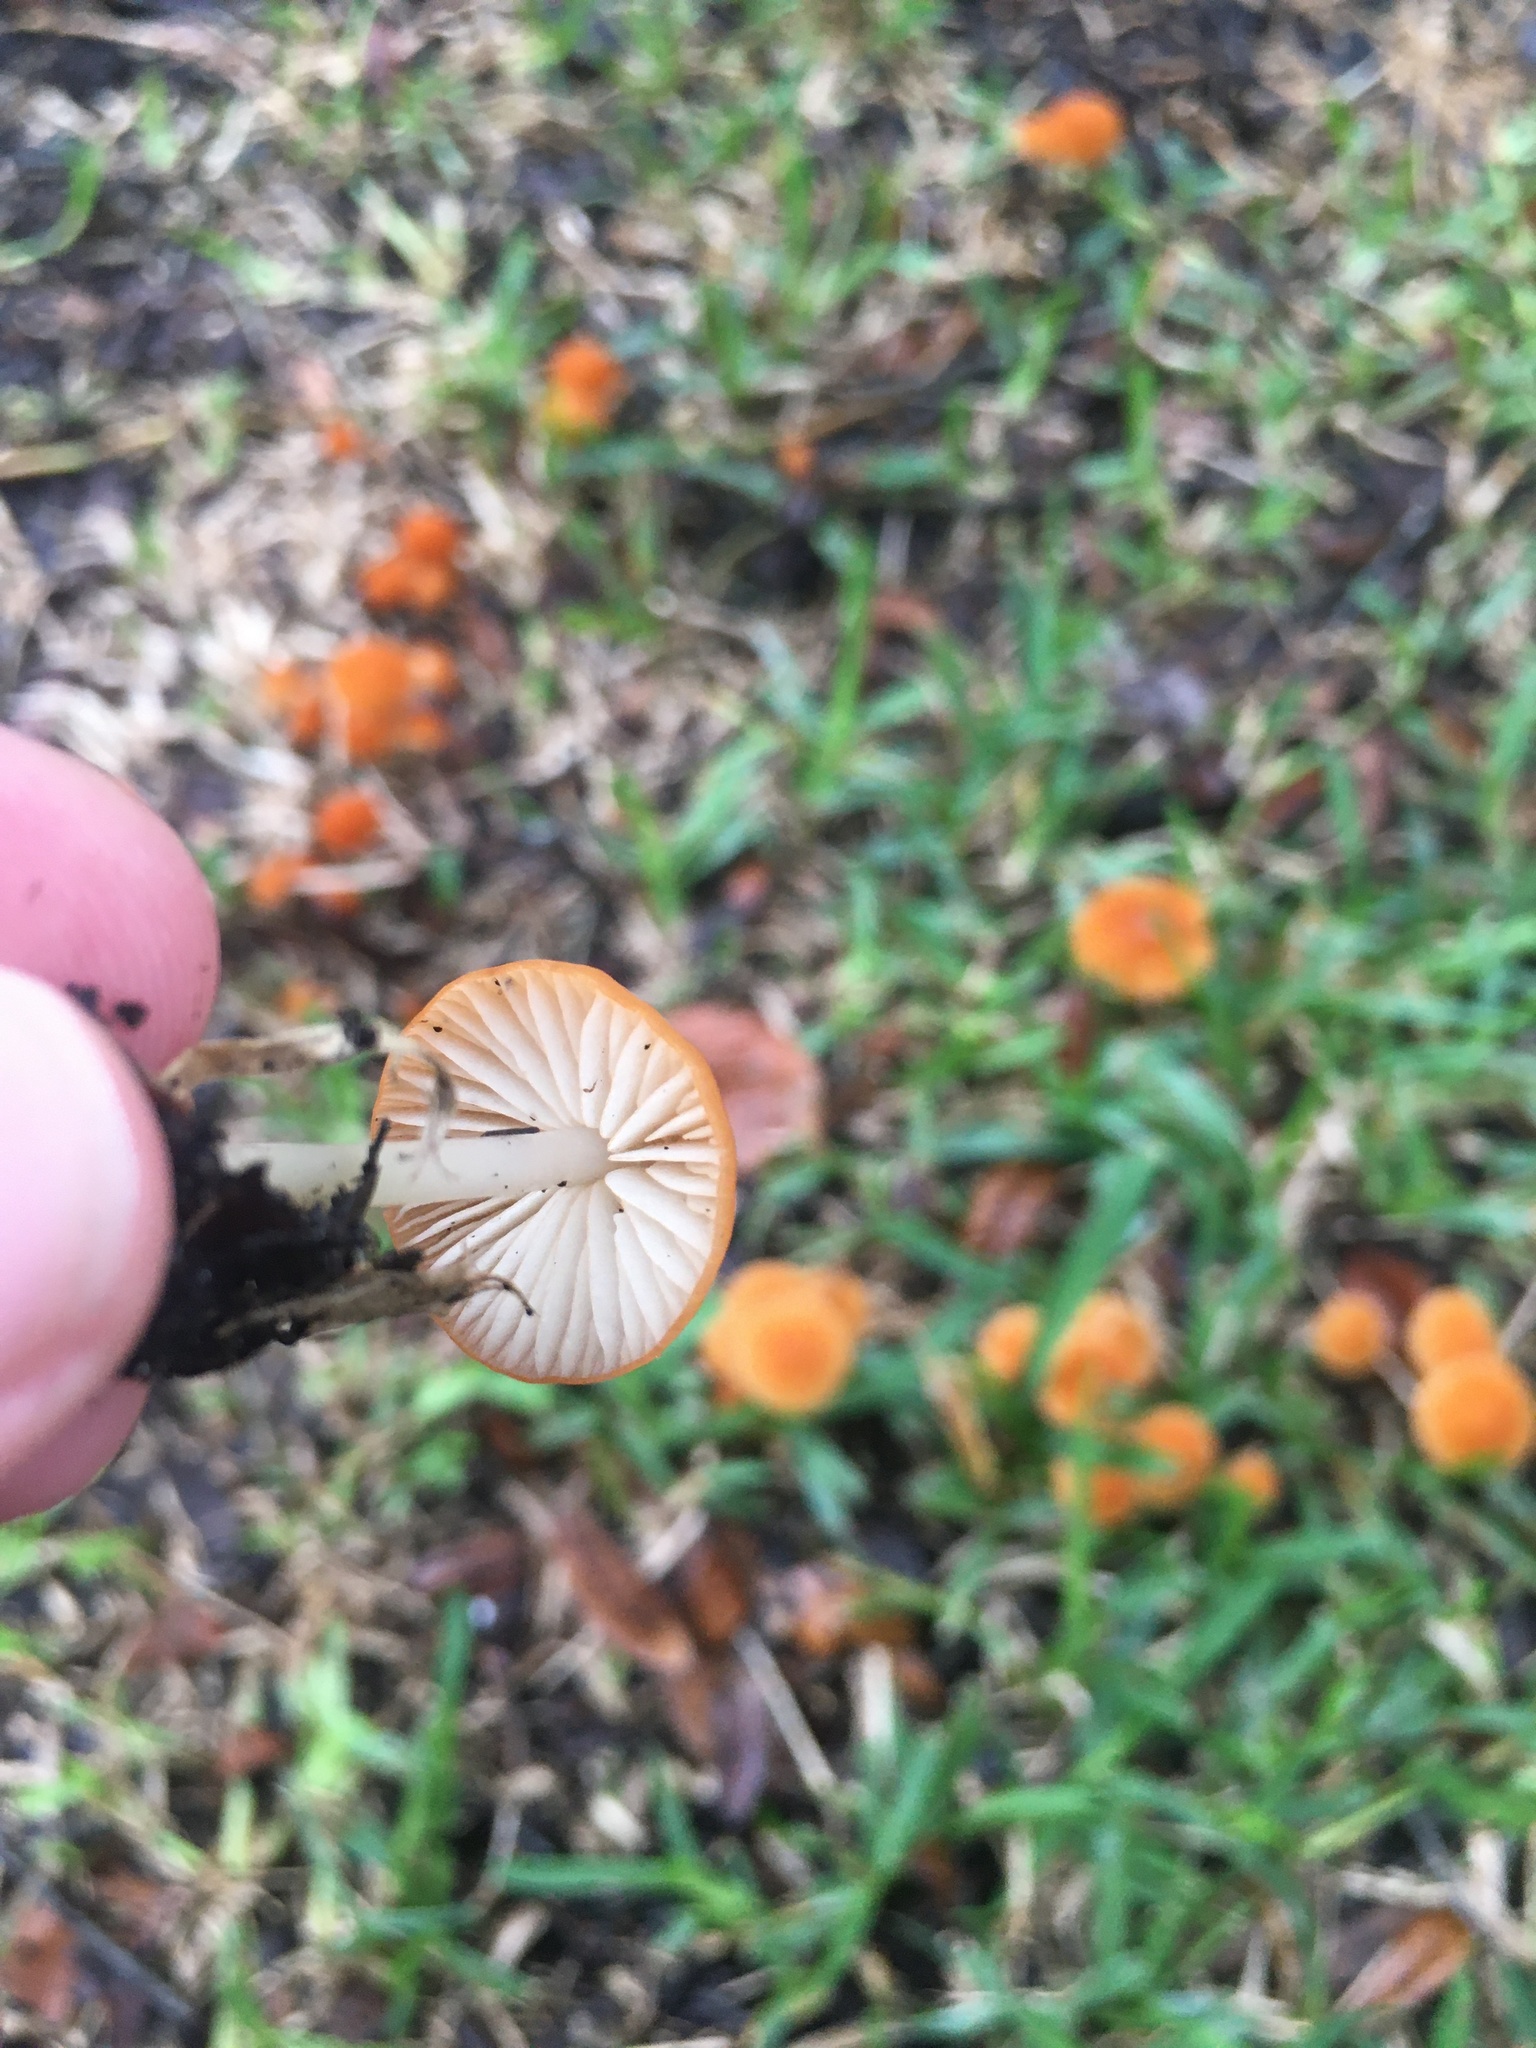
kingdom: Fungi
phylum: Basidiomycota
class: Agaricomycetes
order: Agaricales
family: Marasmiaceae
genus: Marasmius
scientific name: Marasmius vagus
